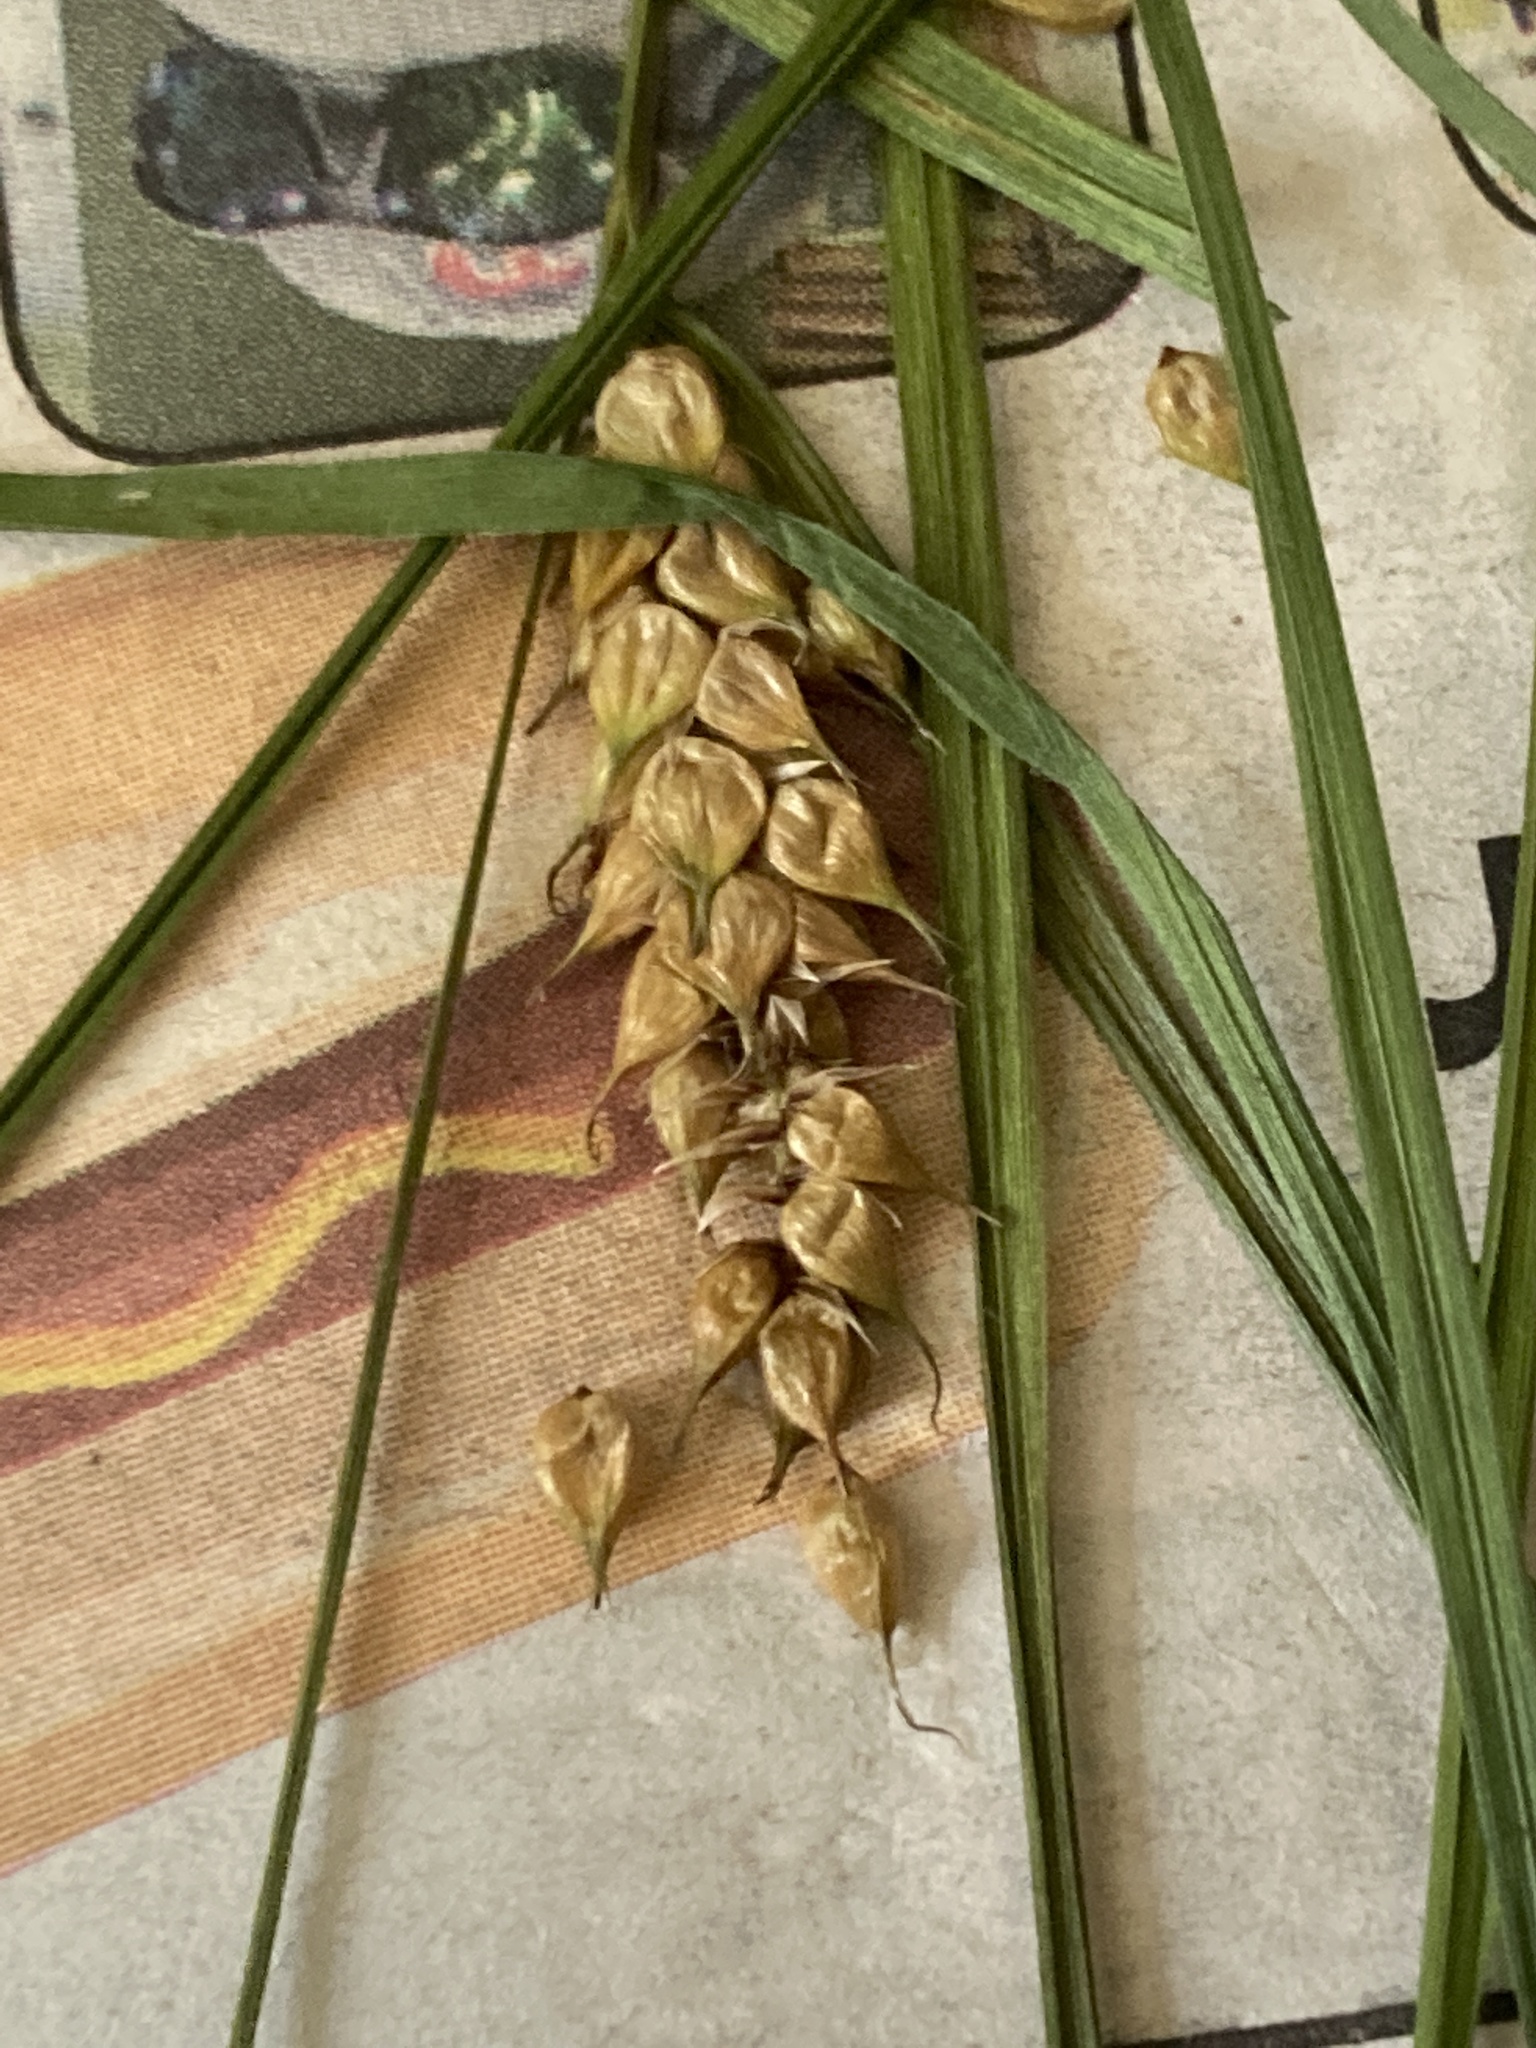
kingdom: Plantae
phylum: Tracheophyta
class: Liliopsida
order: Poales
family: Cyperaceae
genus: Carex
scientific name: Carex vesicaria
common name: Bladder-sedge
